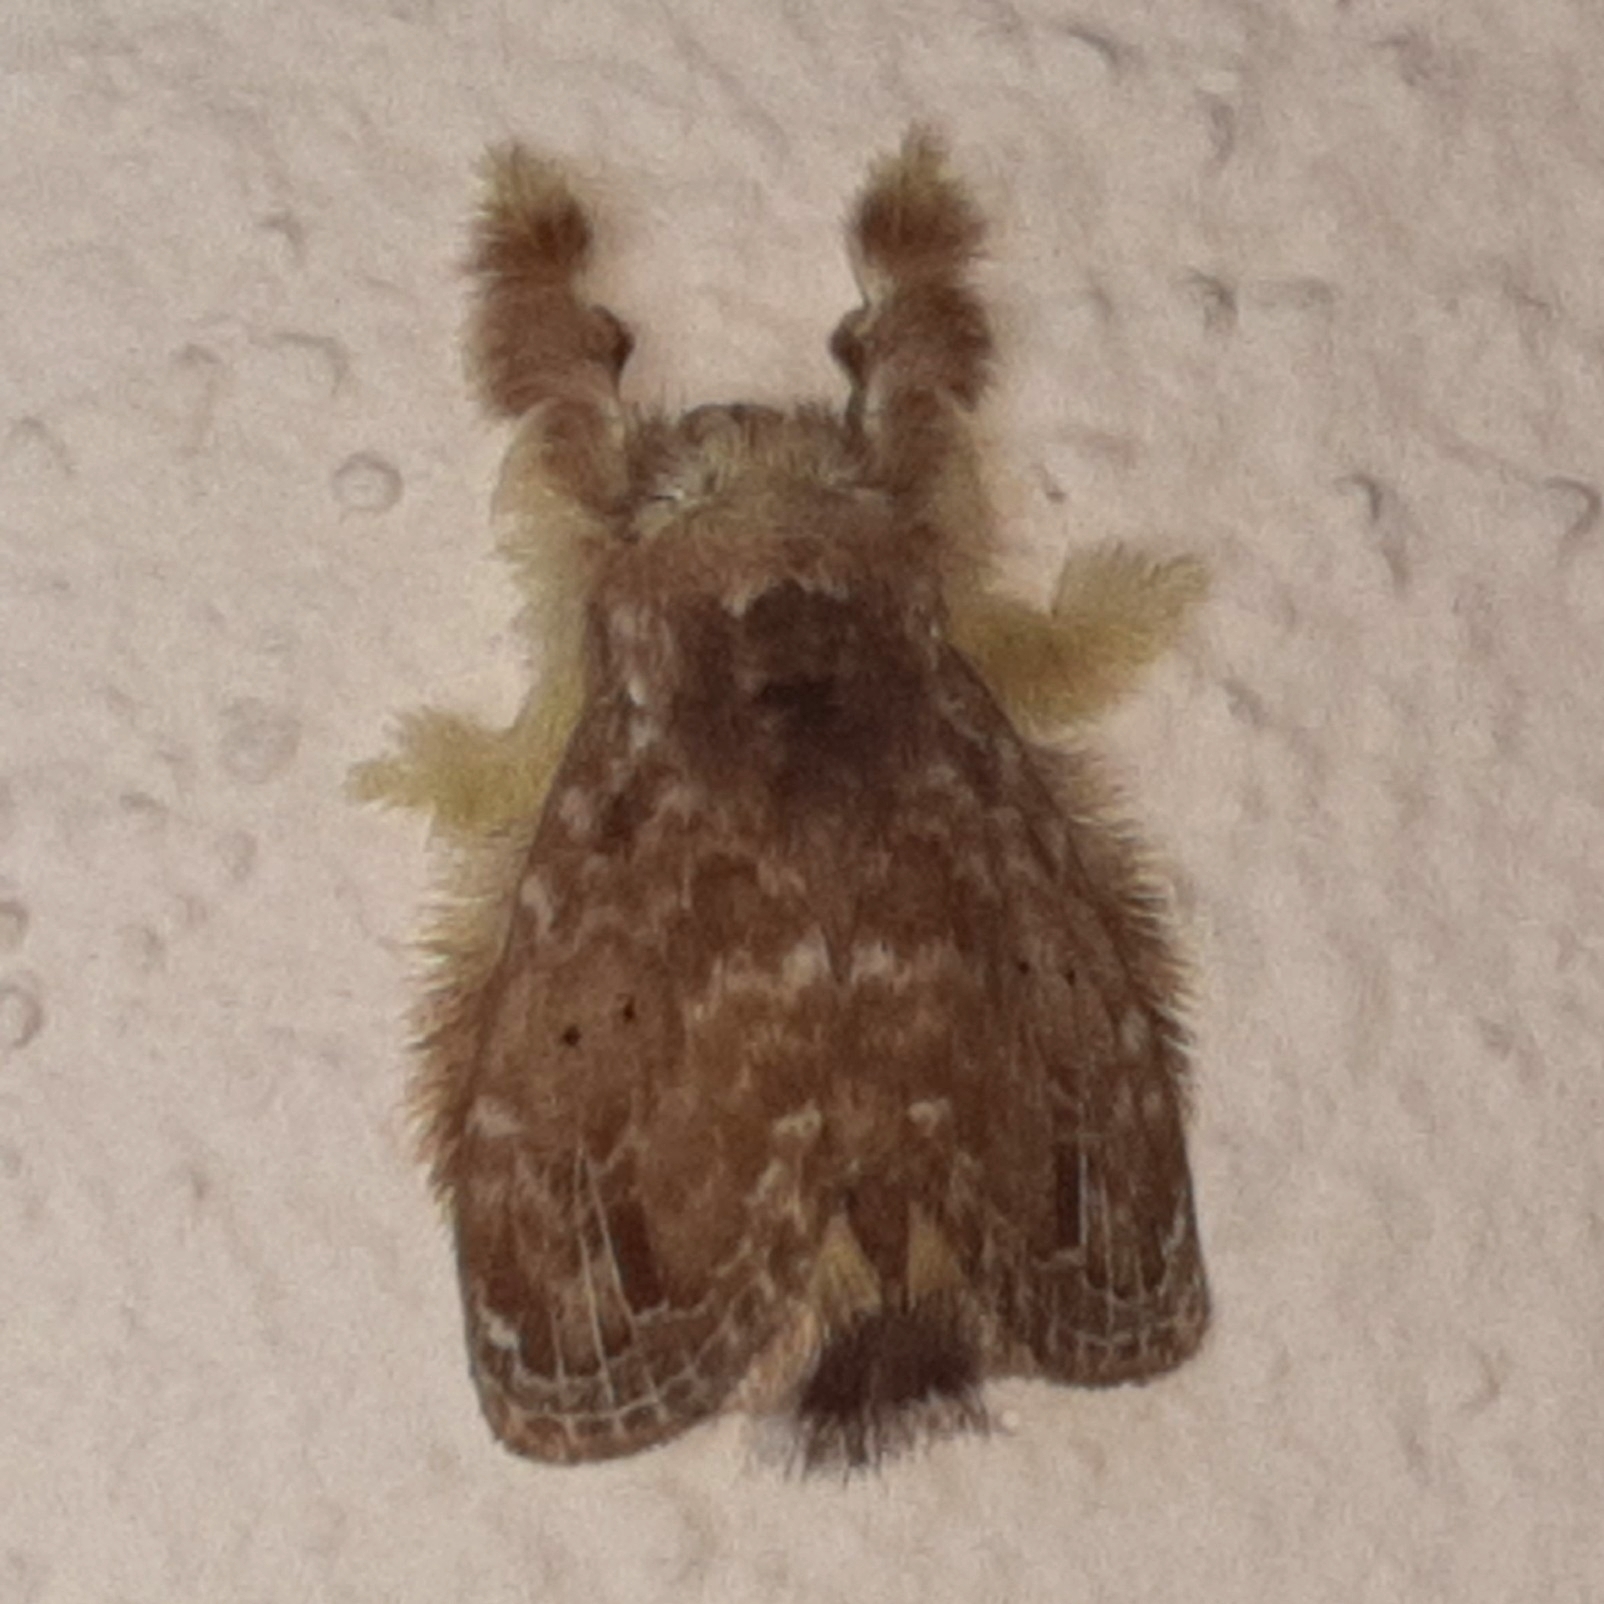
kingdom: Animalia
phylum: Arthropoda
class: Insecta
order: Lepidoptera
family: Lasiocampidae
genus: Nesara
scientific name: Nesara francesca
